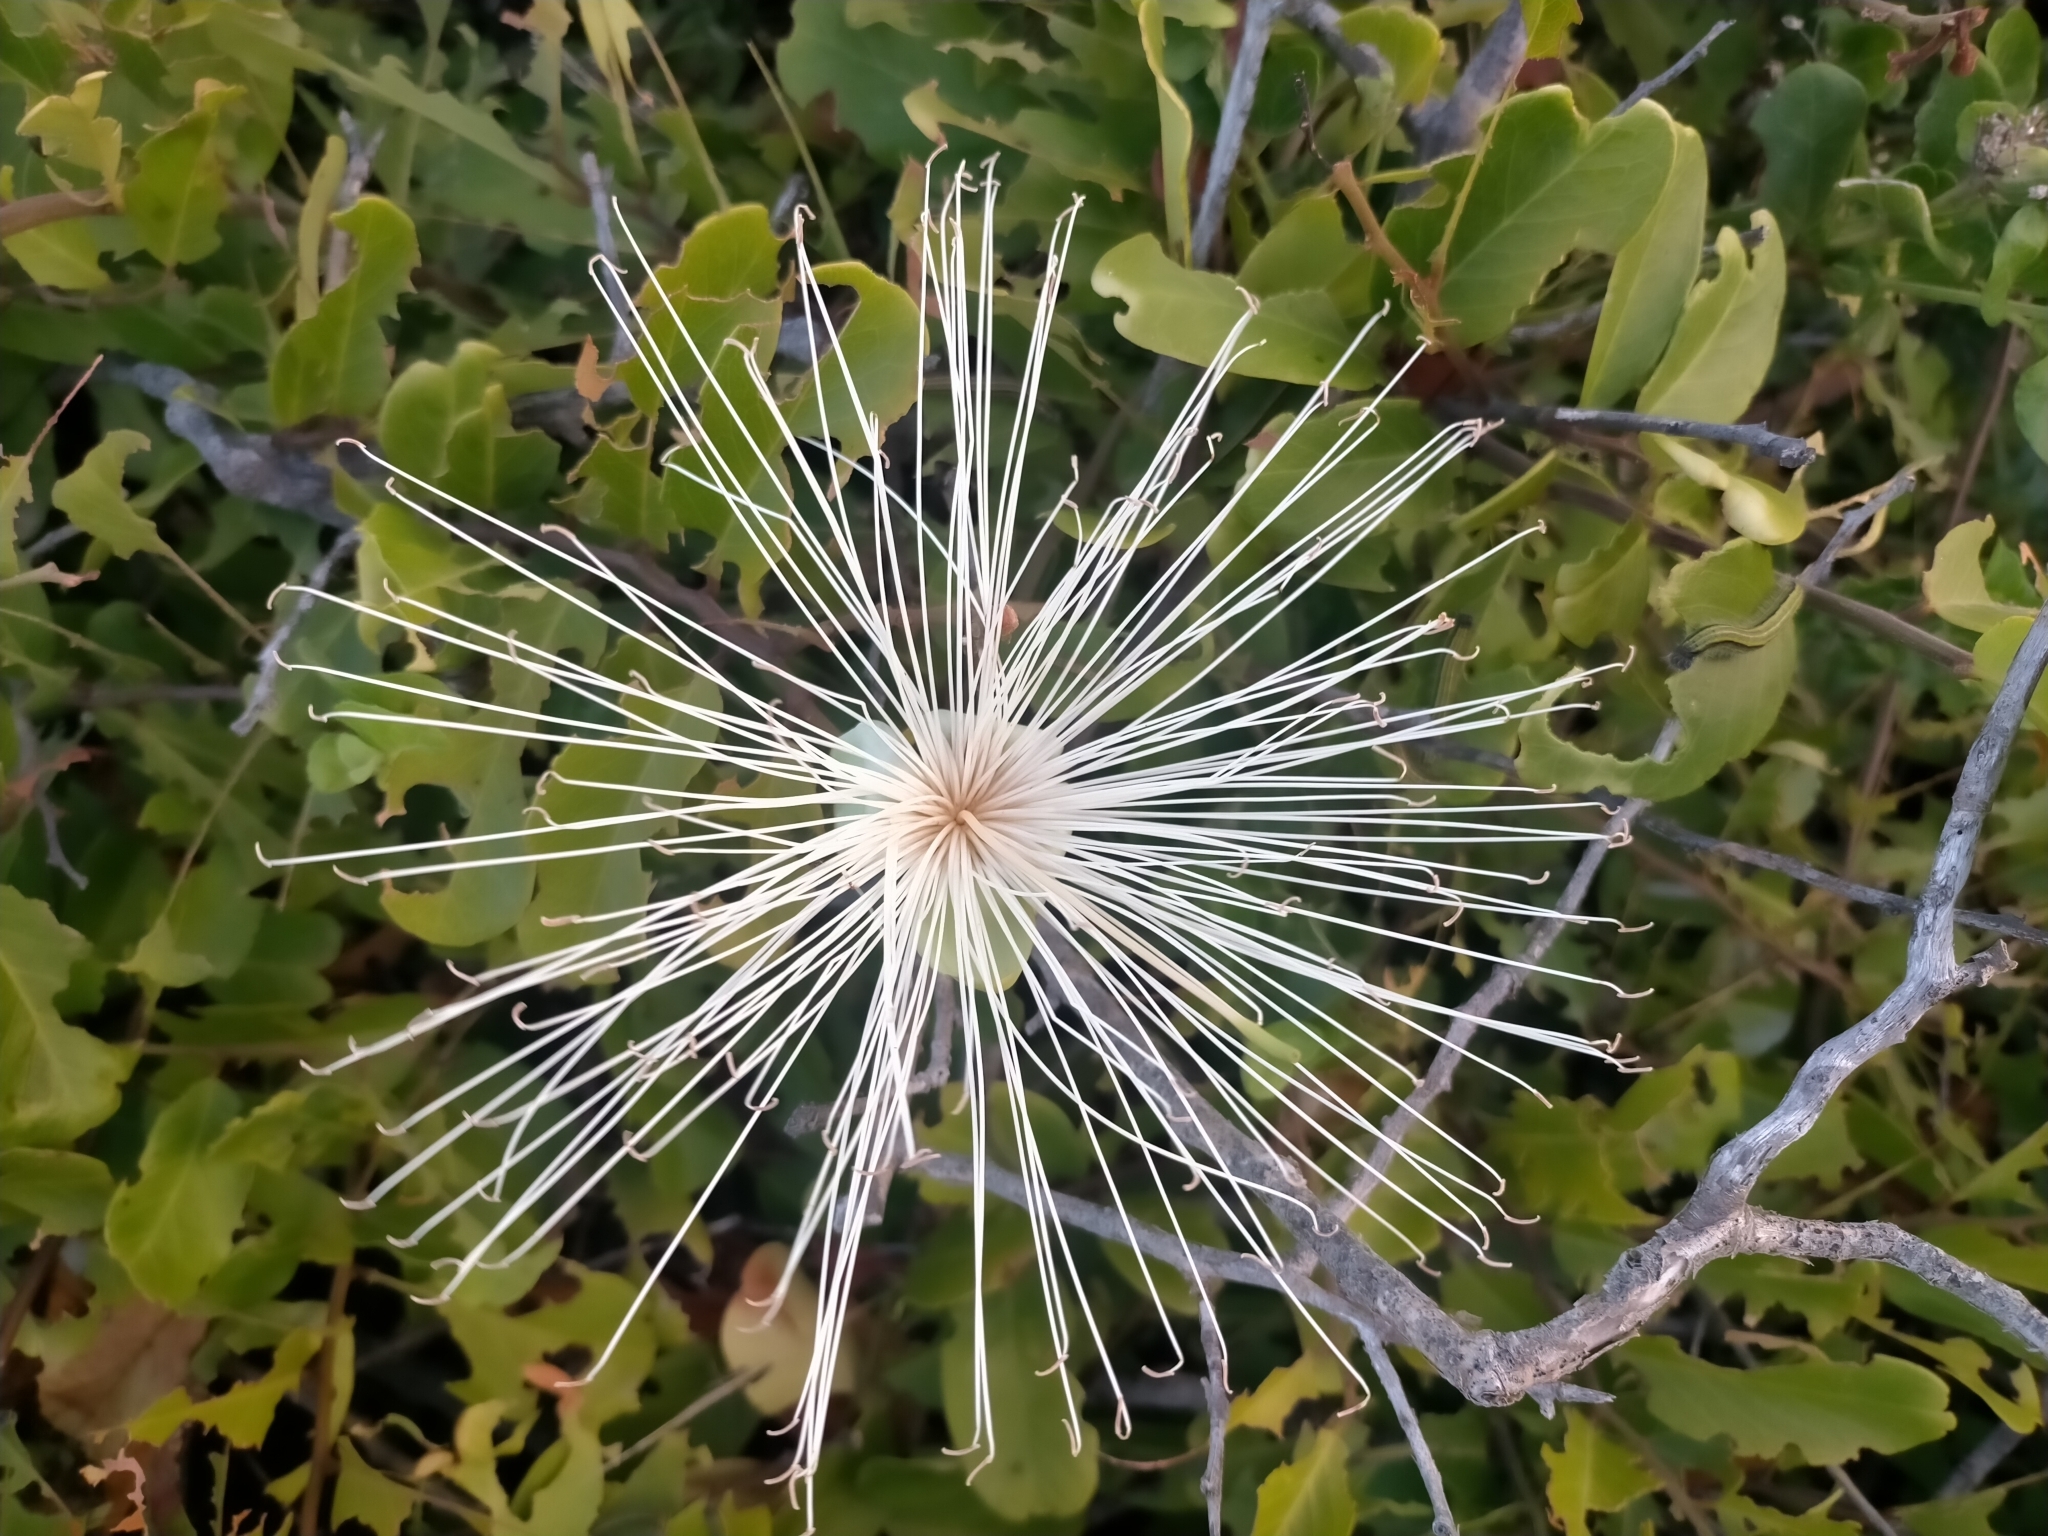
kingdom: Plantae
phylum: Tracheophyta
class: Magnoliopsida
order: Brassicales
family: Capparaceae
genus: Cynophalla
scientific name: Cynophalla flexuosa
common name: Capertree
